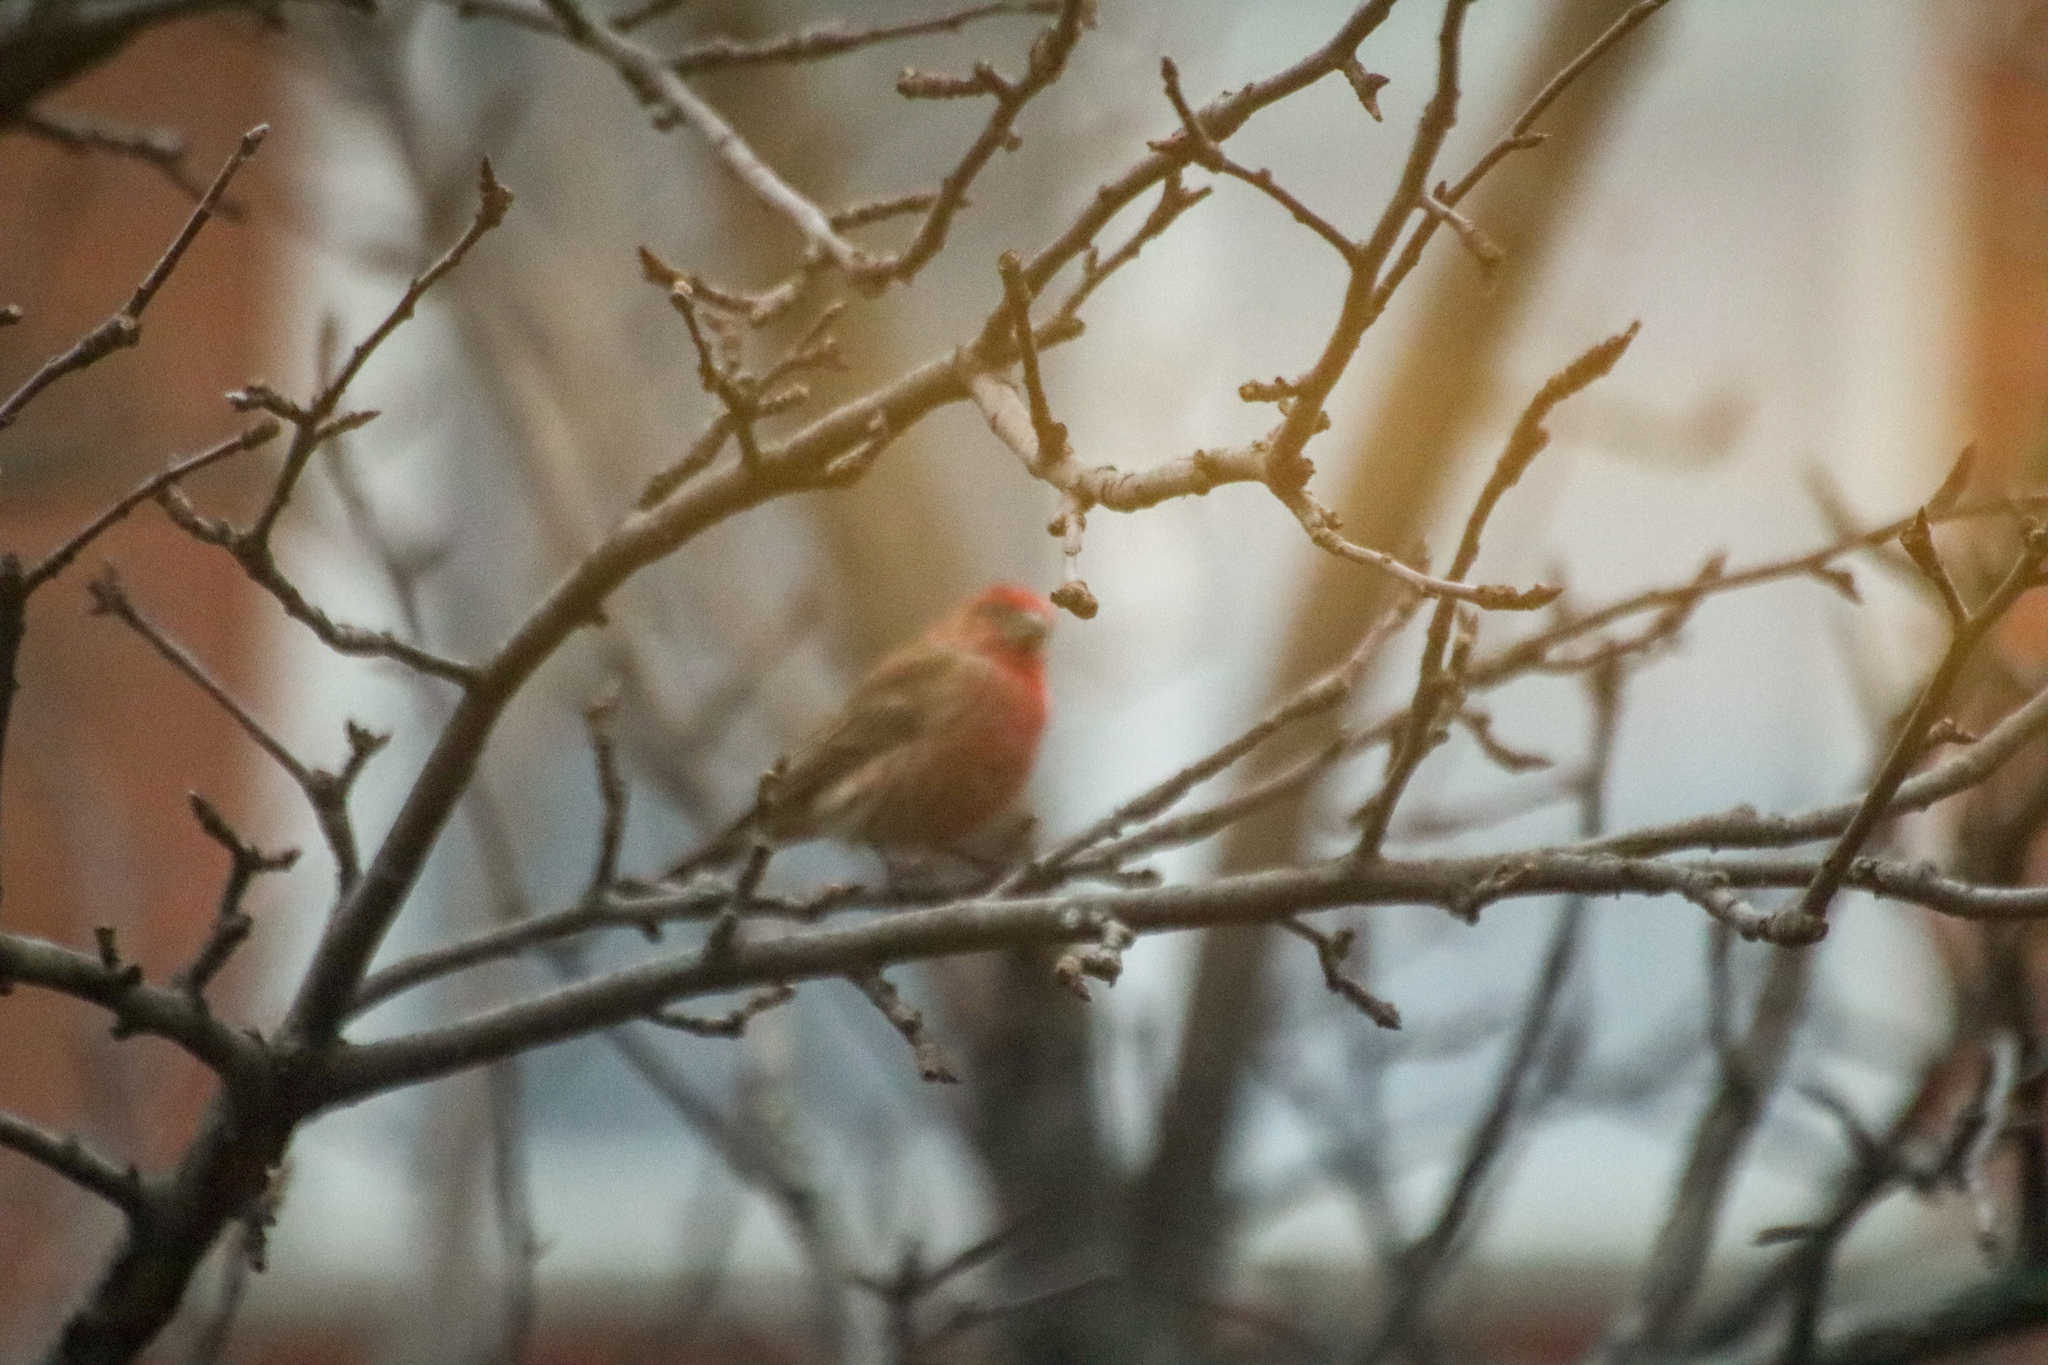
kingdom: Animalia
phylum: Chordata
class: Aves
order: Passeriformes
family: Fringillidae
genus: Haemorhous
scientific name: Haemorhous mexicanus
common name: House finch
